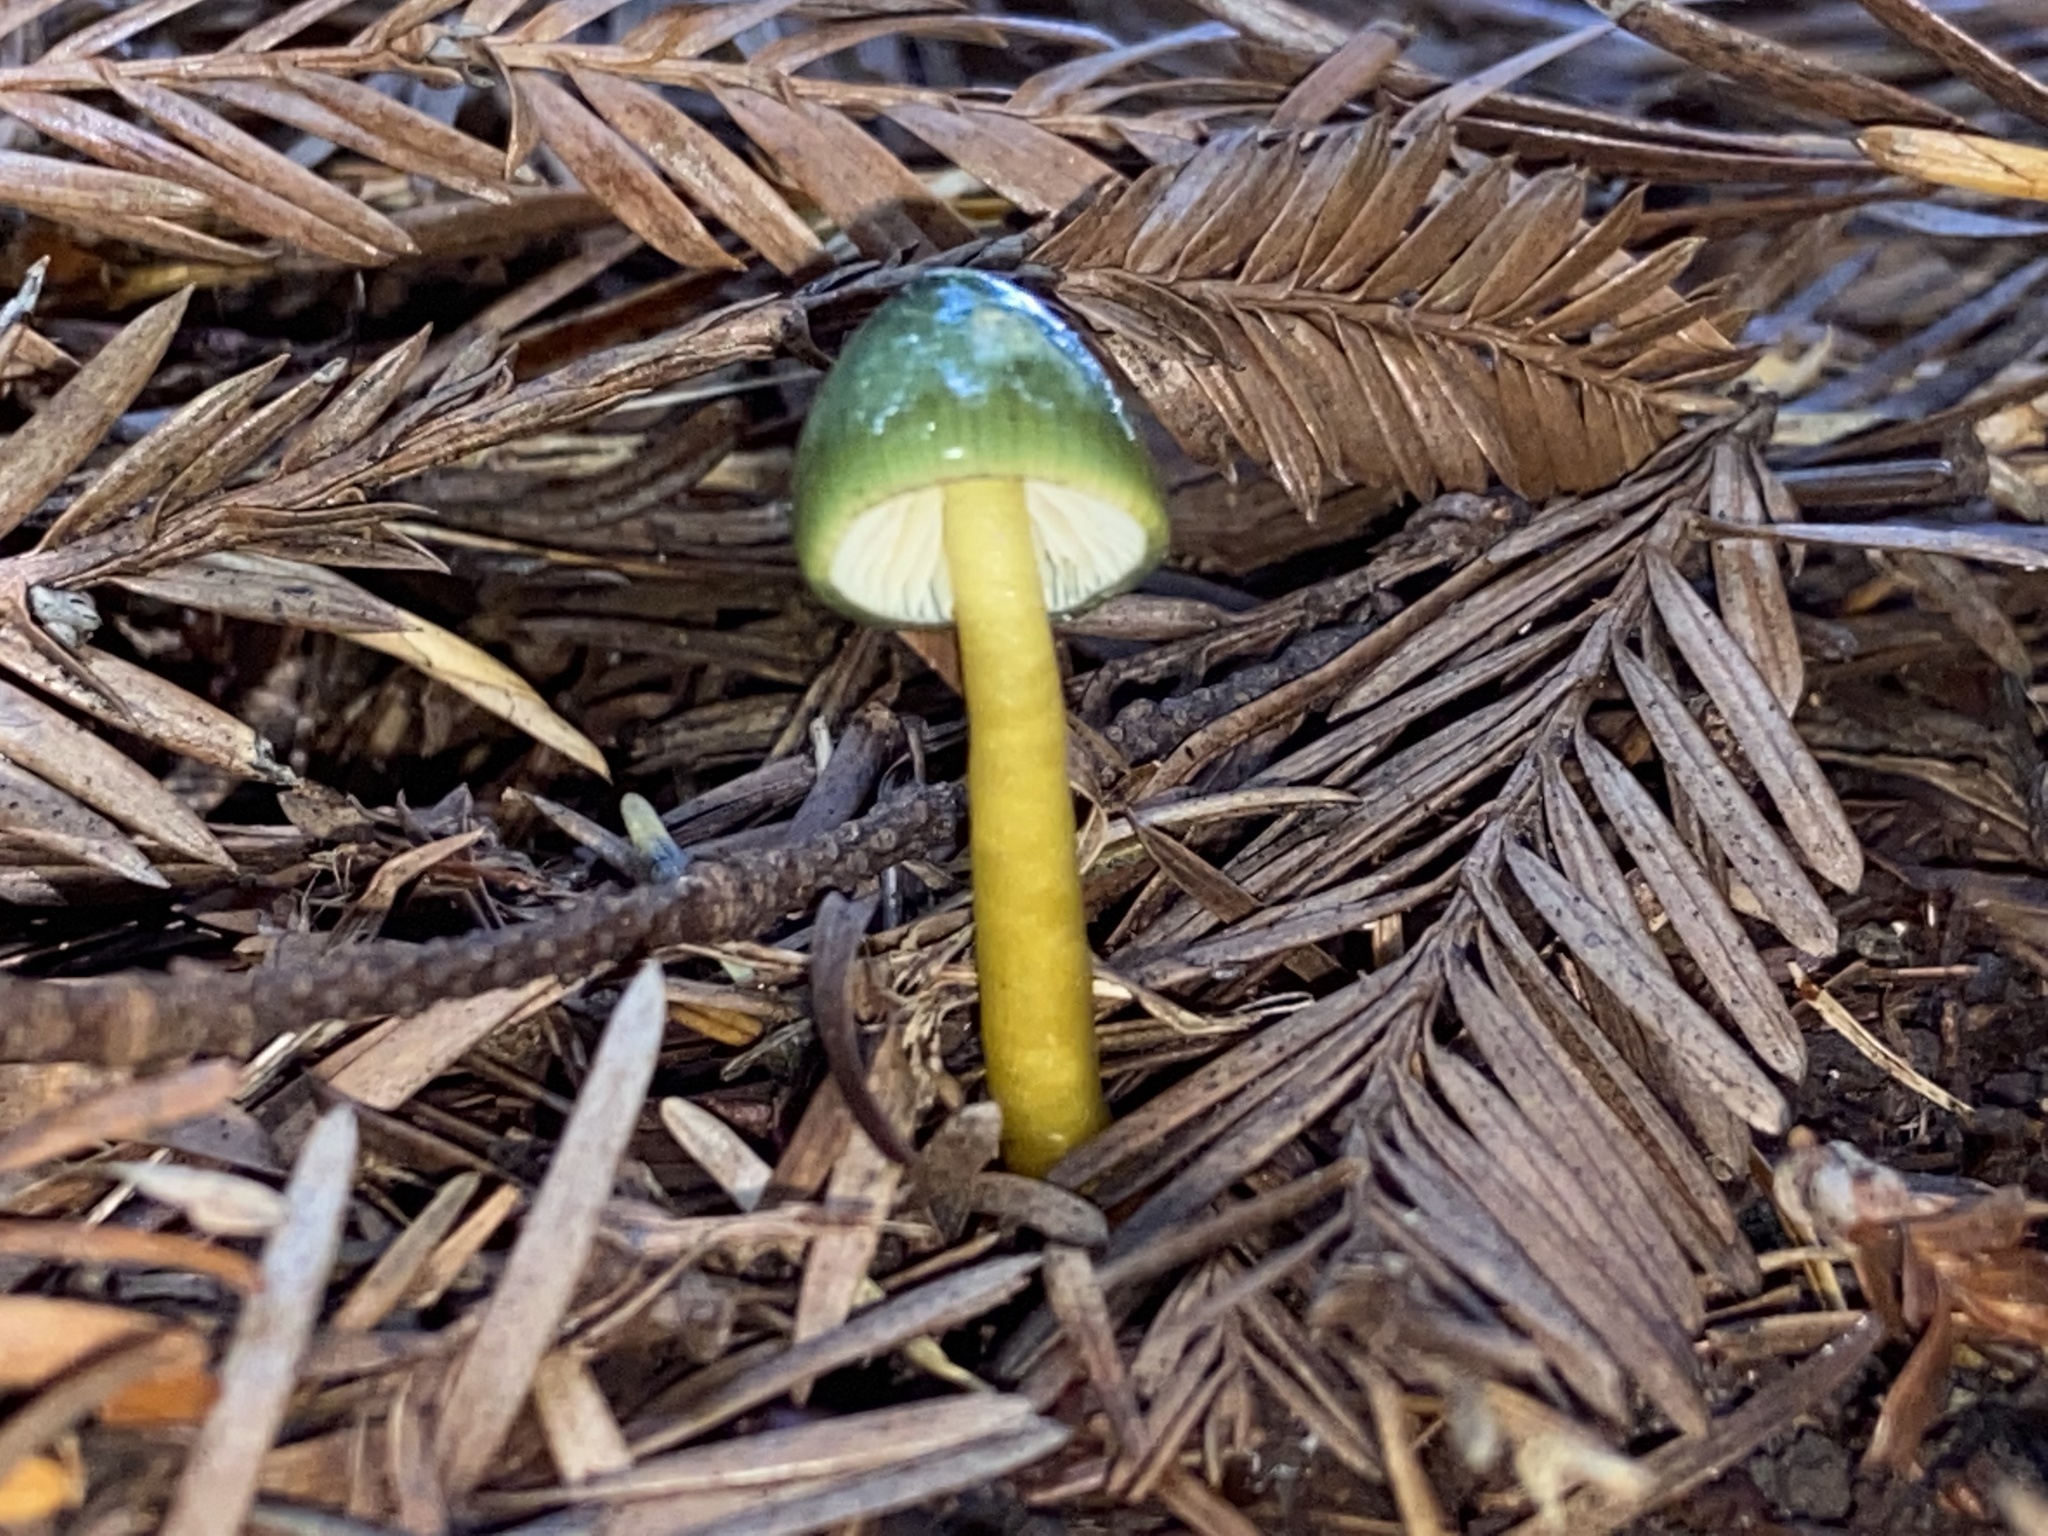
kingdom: Fungi
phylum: Basidiomycota
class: Agaricomycetes
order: Agaricales
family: Hygrophoraceae
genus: Gliophorus
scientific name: Gliophorus psittacinus
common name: Parrot wax-cap
